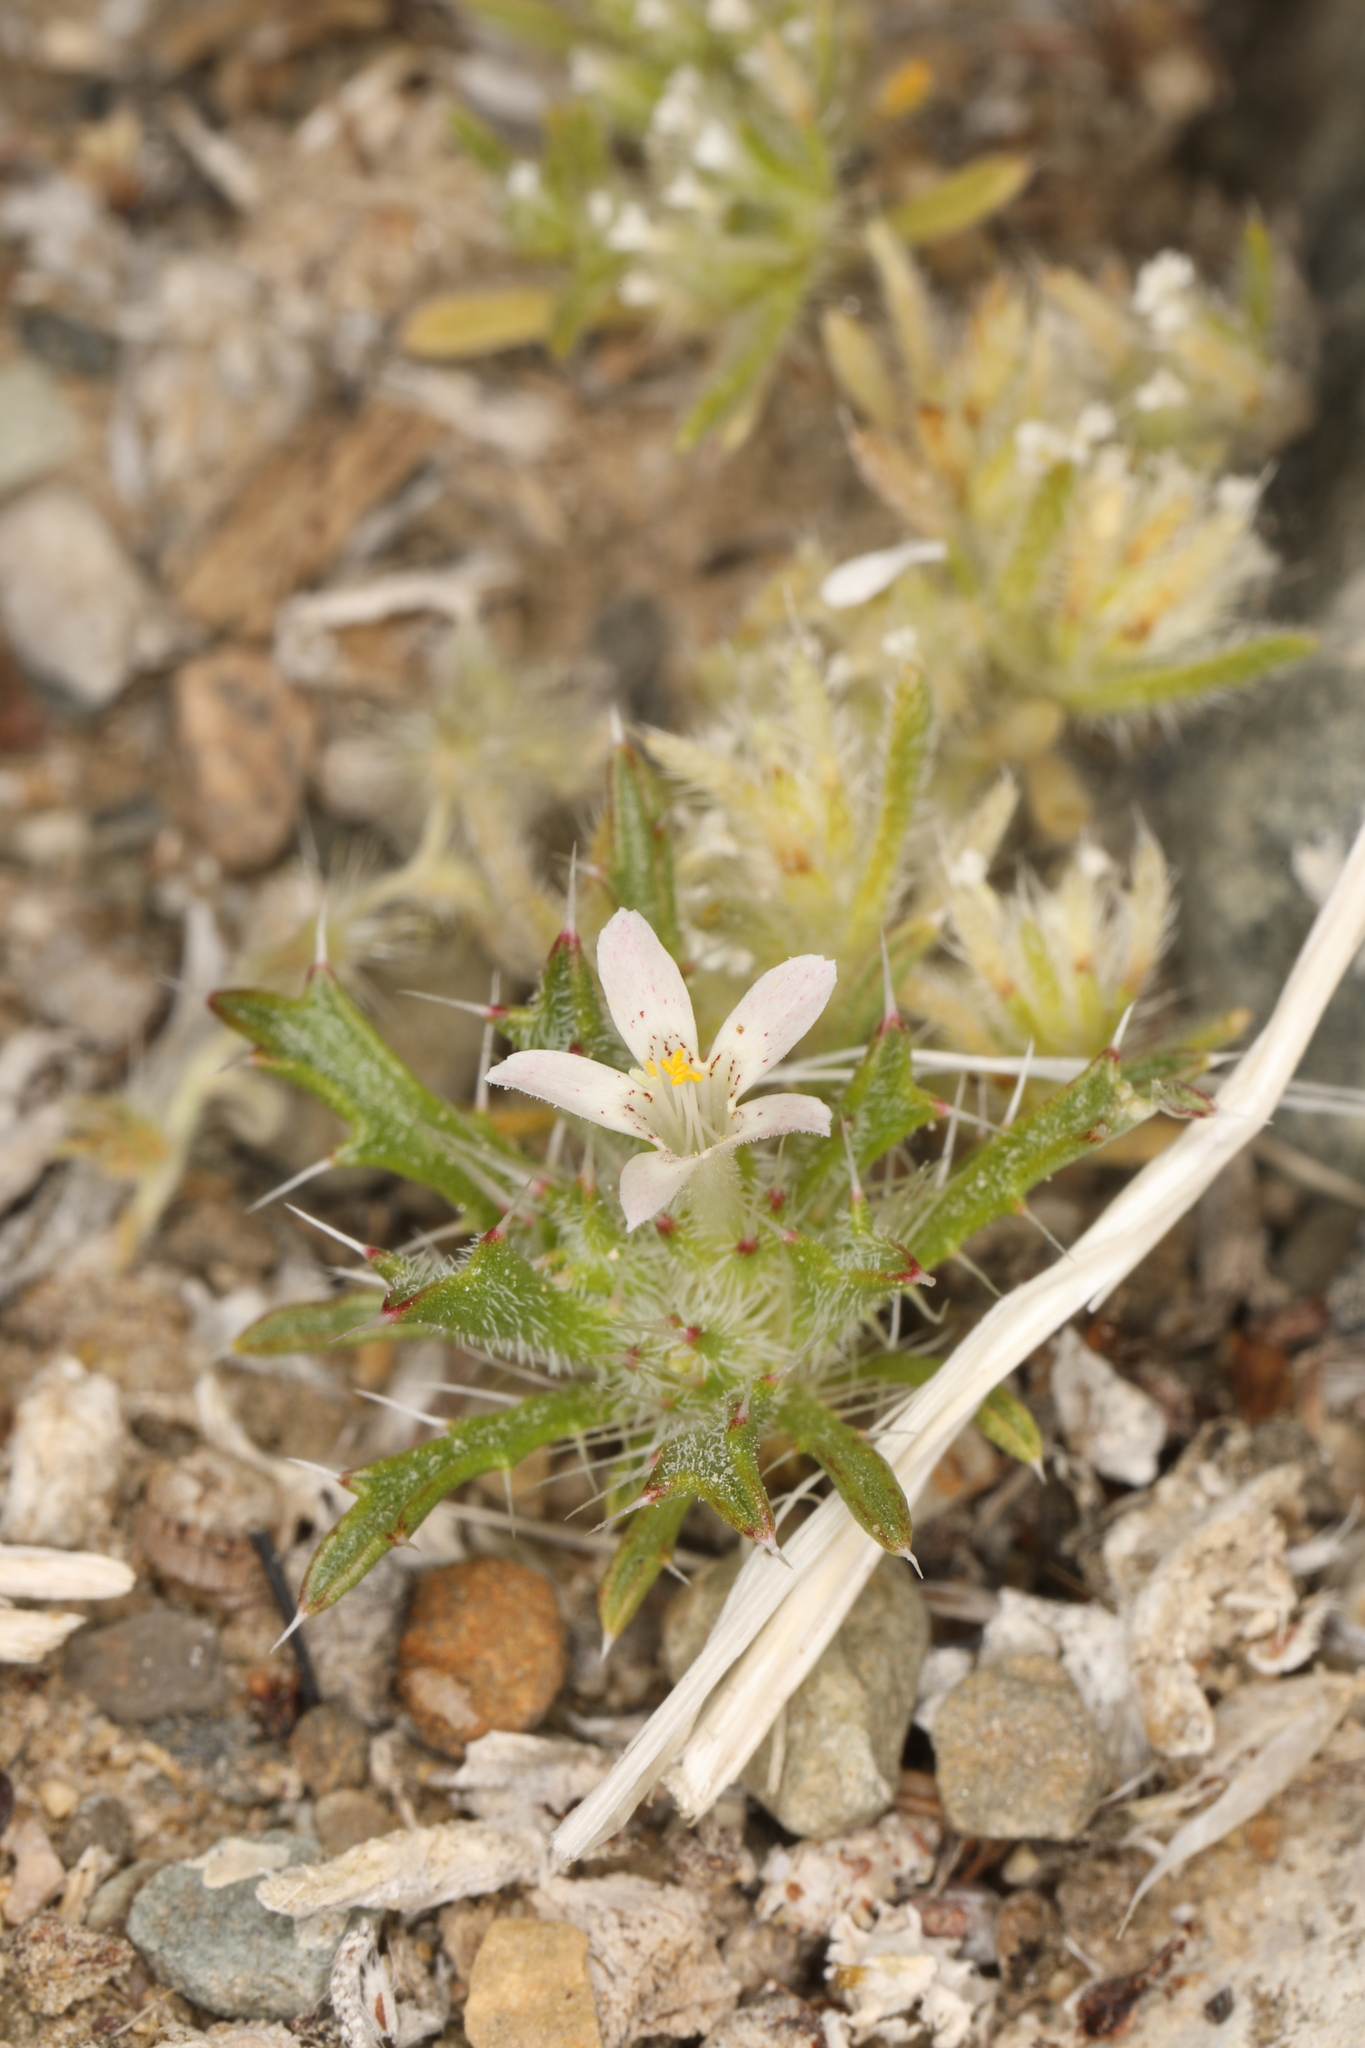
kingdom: Plantae
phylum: Tracheophyta
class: Magnoliopsida
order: Ericales
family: Polemoniaceae
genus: Loeseliastrum
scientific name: Loeseliastrum schottii
